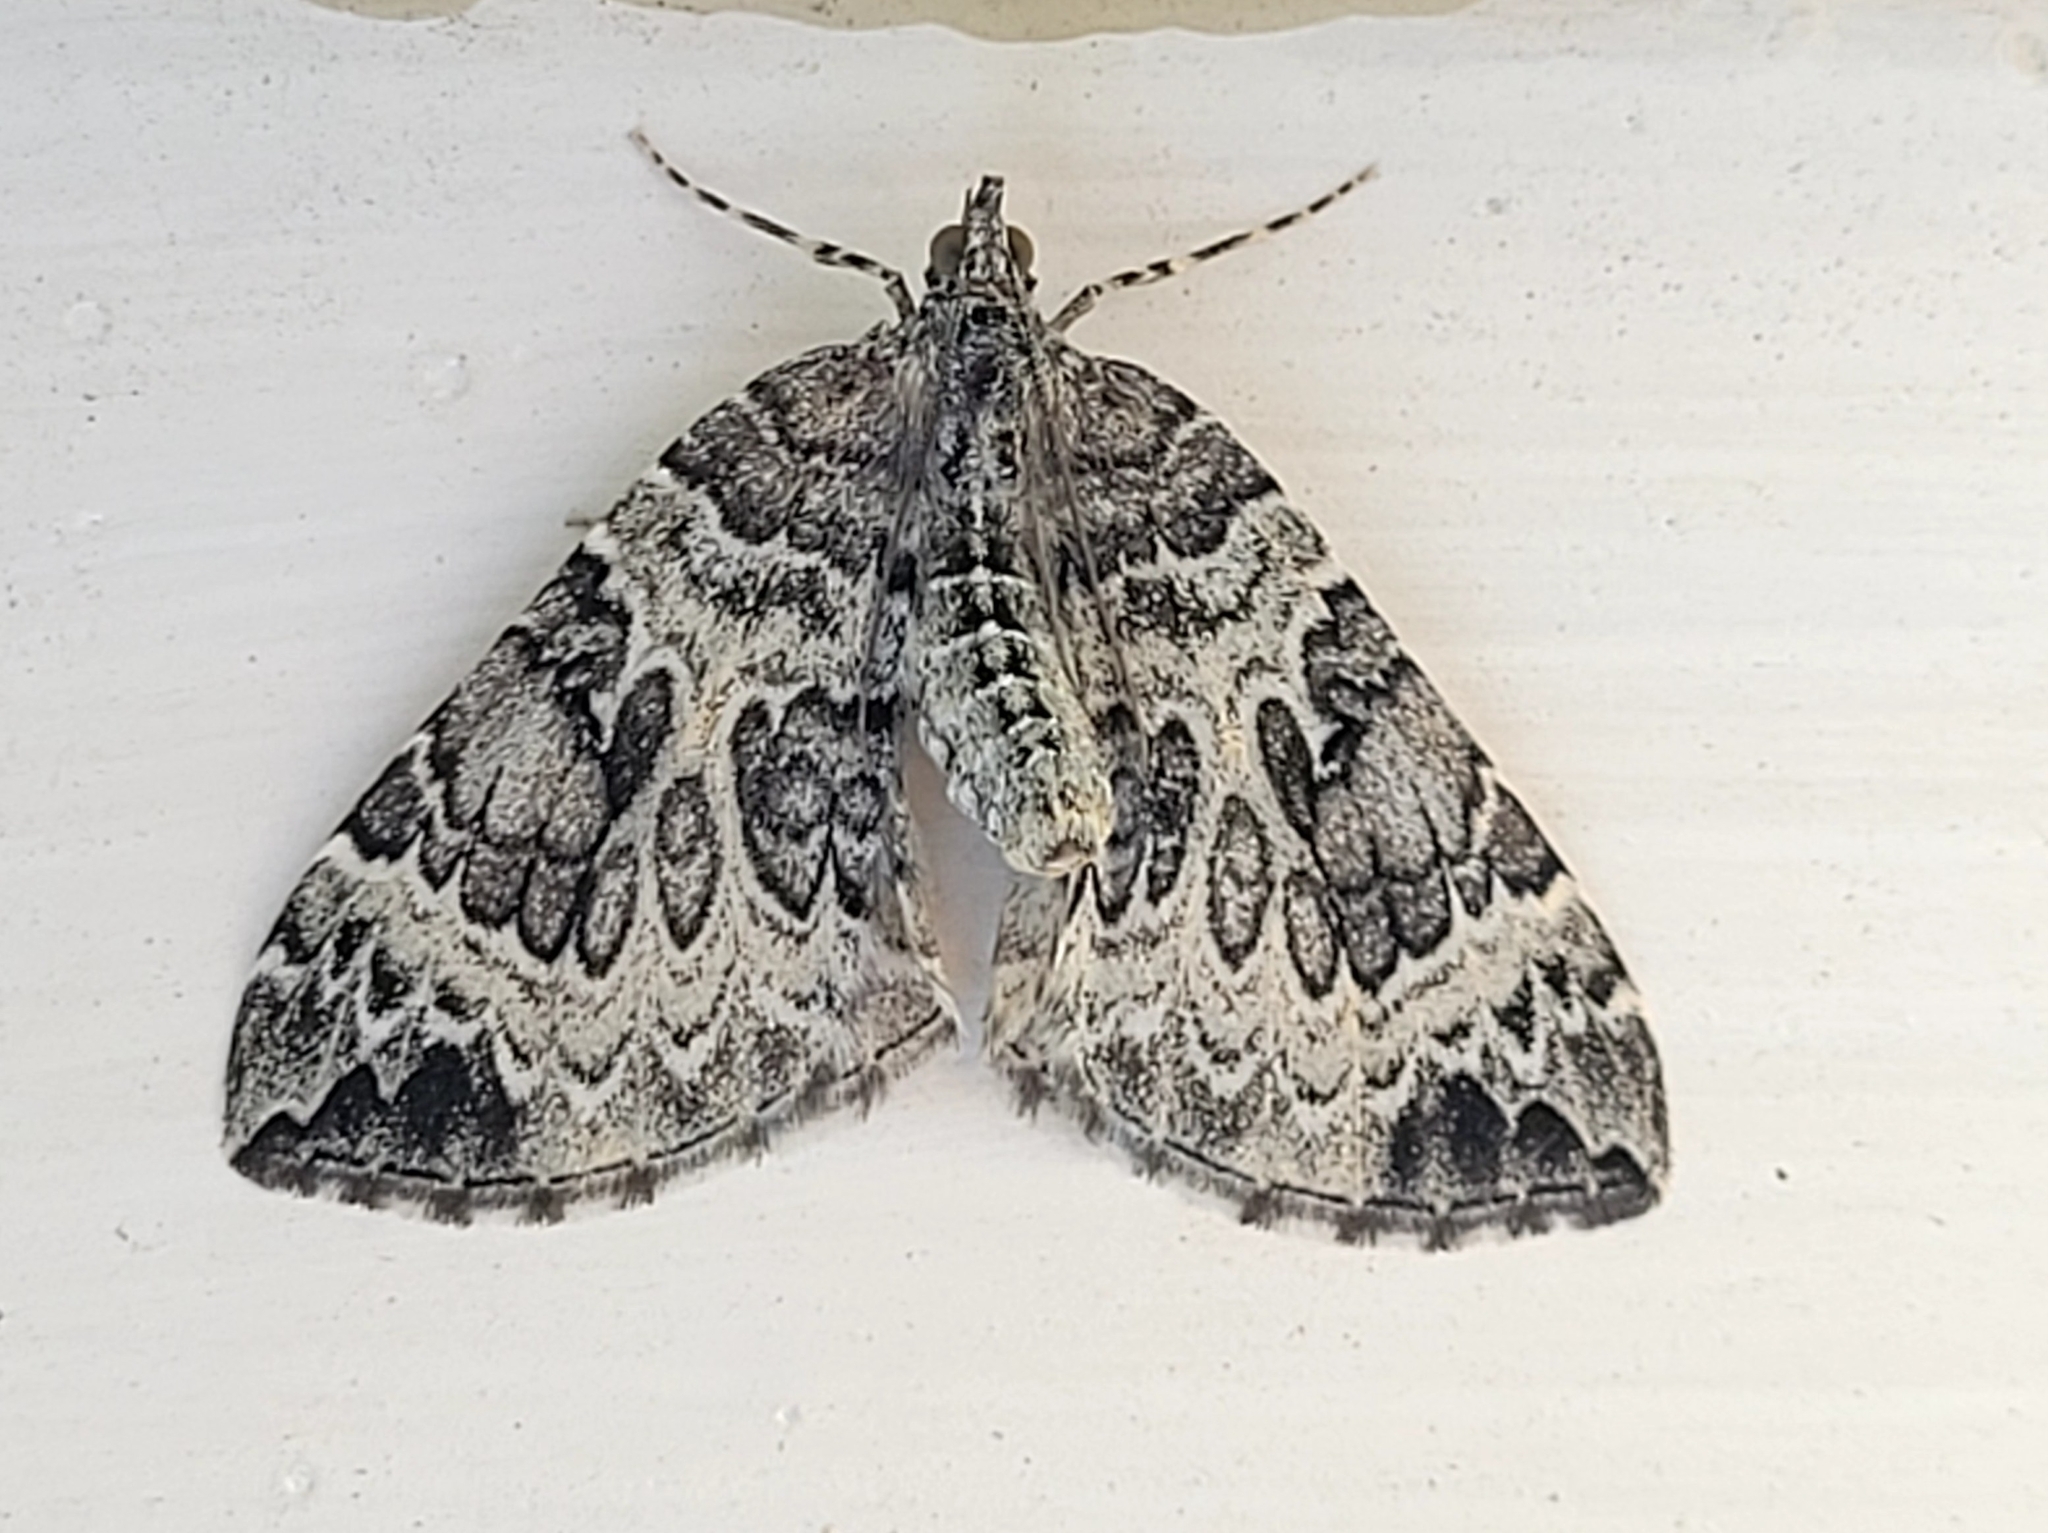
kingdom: Animalia
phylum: Arthropoda
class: Insecta
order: Lepidoptera
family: Geometridae
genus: Eulithis
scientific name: Eulithis explanata
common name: White eulithis
